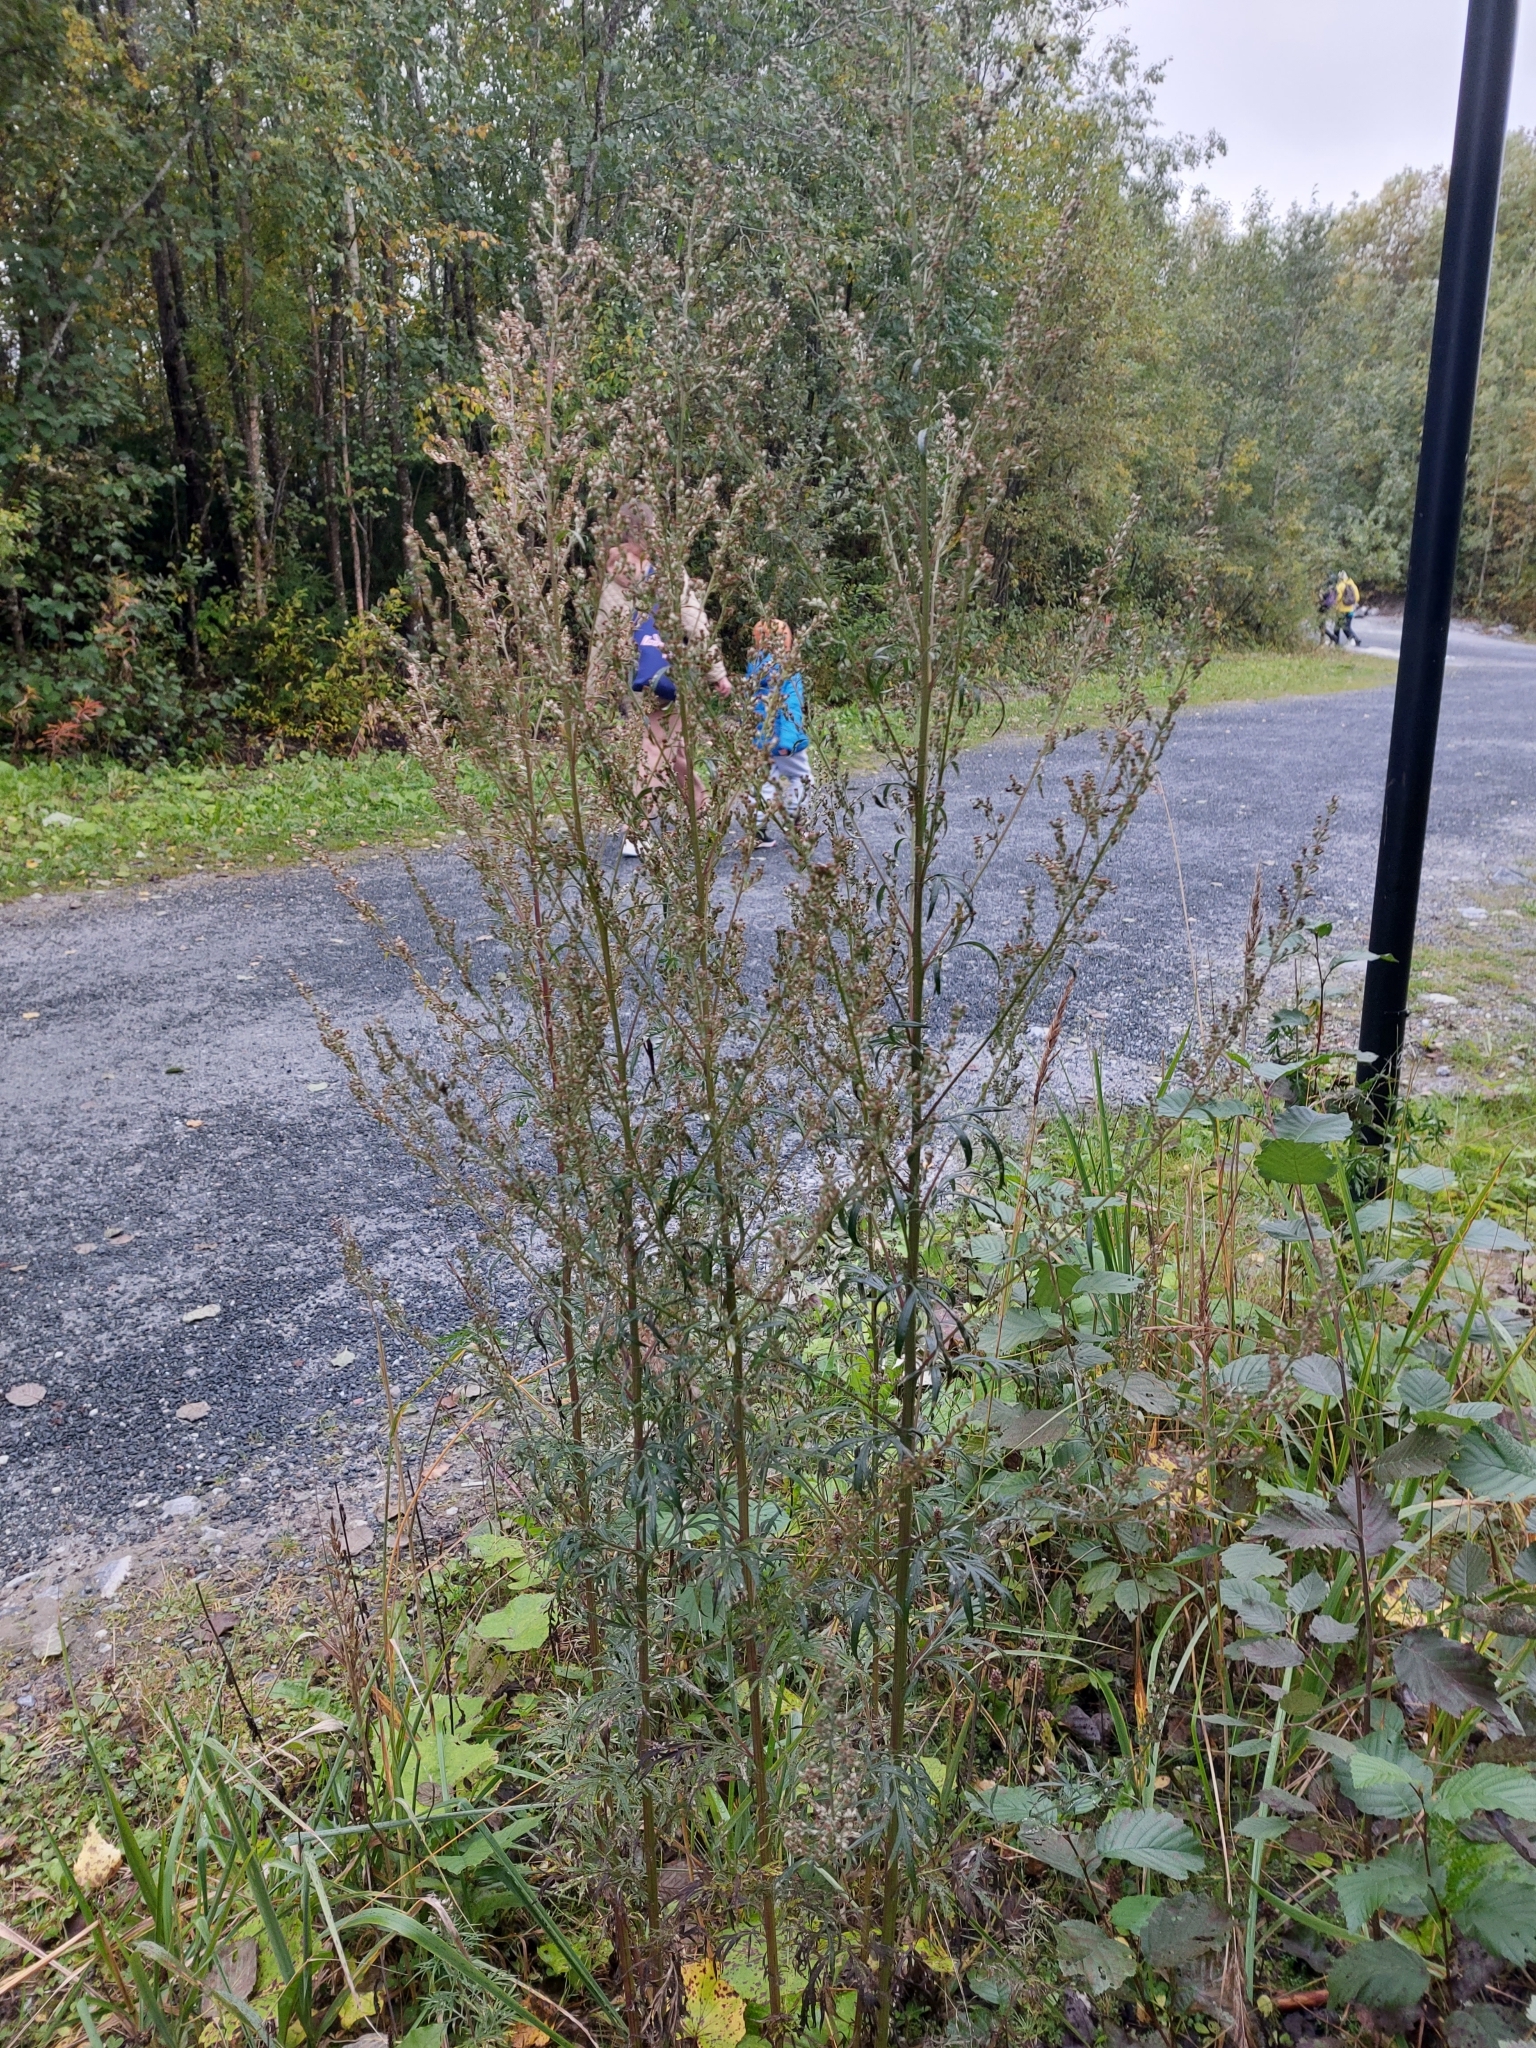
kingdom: Plantae
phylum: Tracheophyta
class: Magnoliopsida
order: Asterales
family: Asteraceae
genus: Artemisia
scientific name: Artemisia vulgaris
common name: Mugwort
